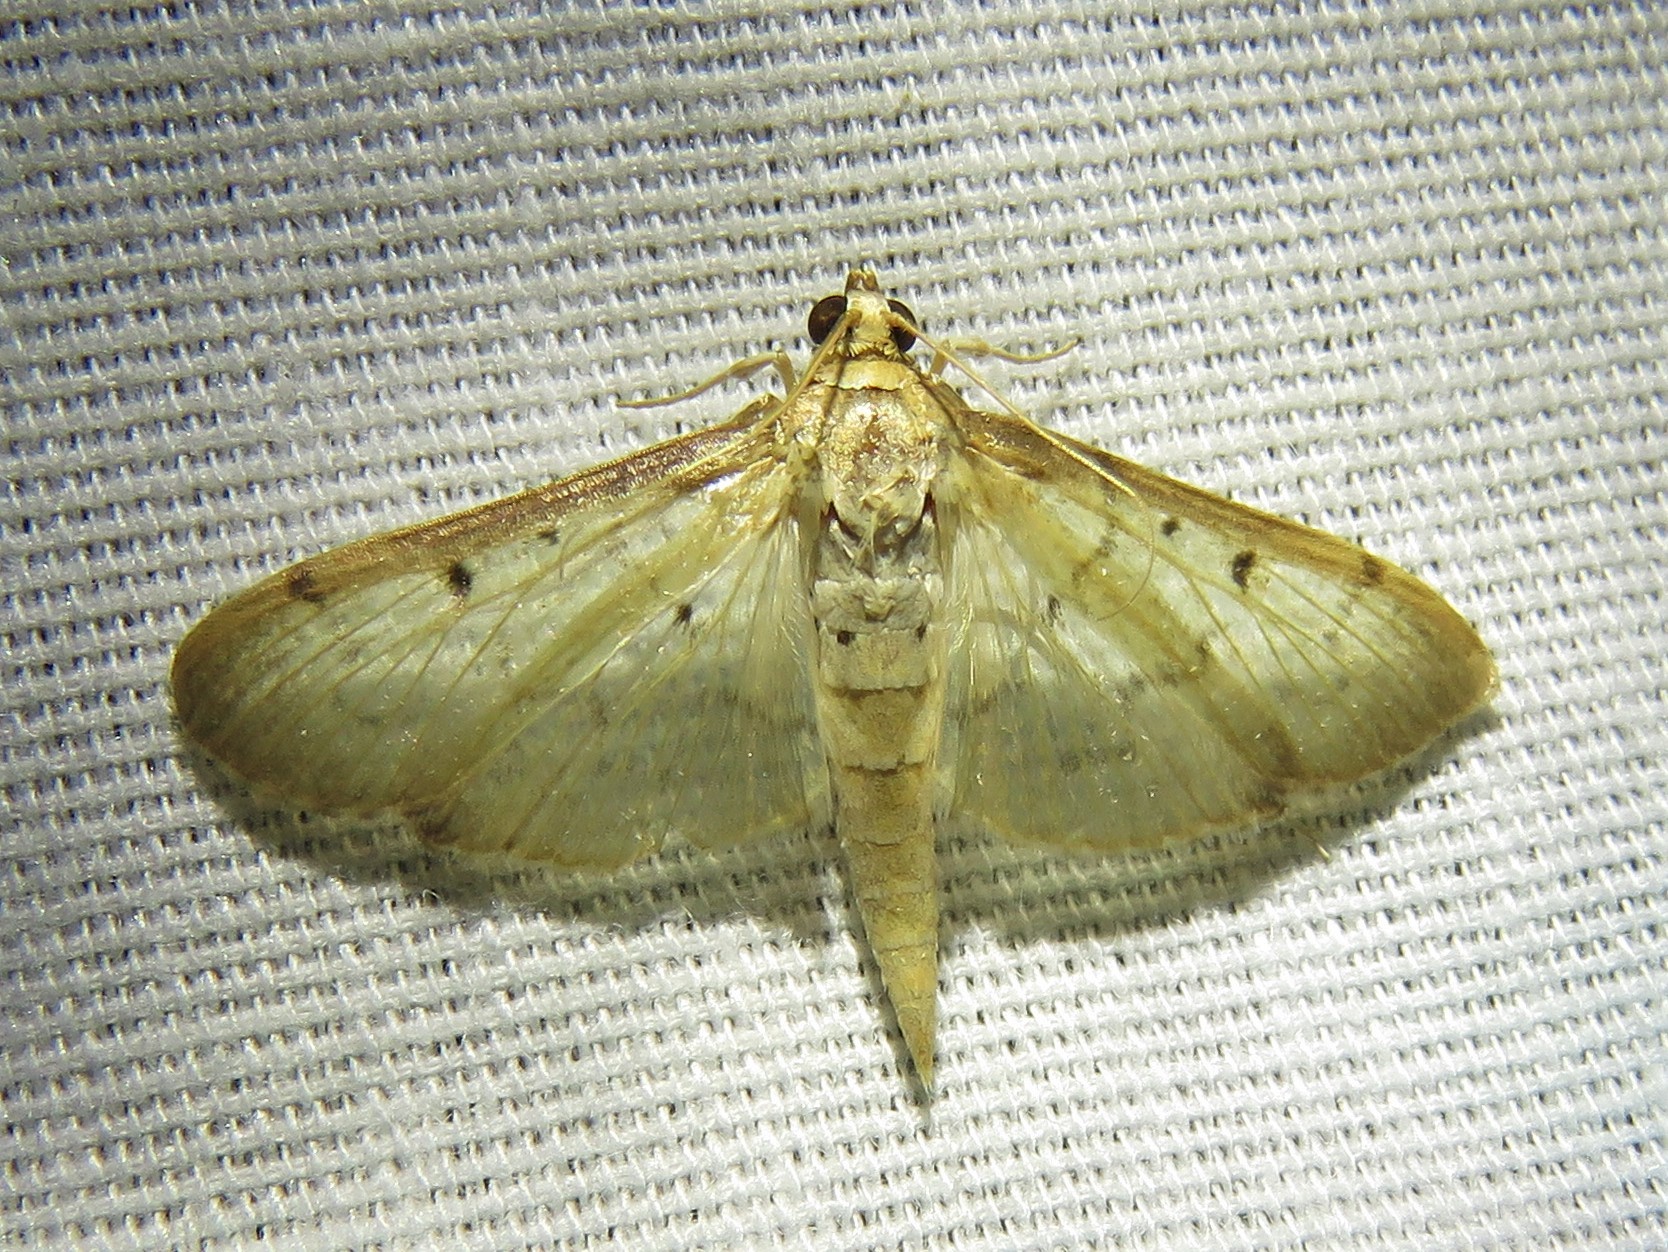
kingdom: Animalia
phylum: Arthropoda
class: Insecta
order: Lepidoptera
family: Crambidae
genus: Herpetogramma
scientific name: Herpetogramma bipunctalis
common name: Southern beet webworm
